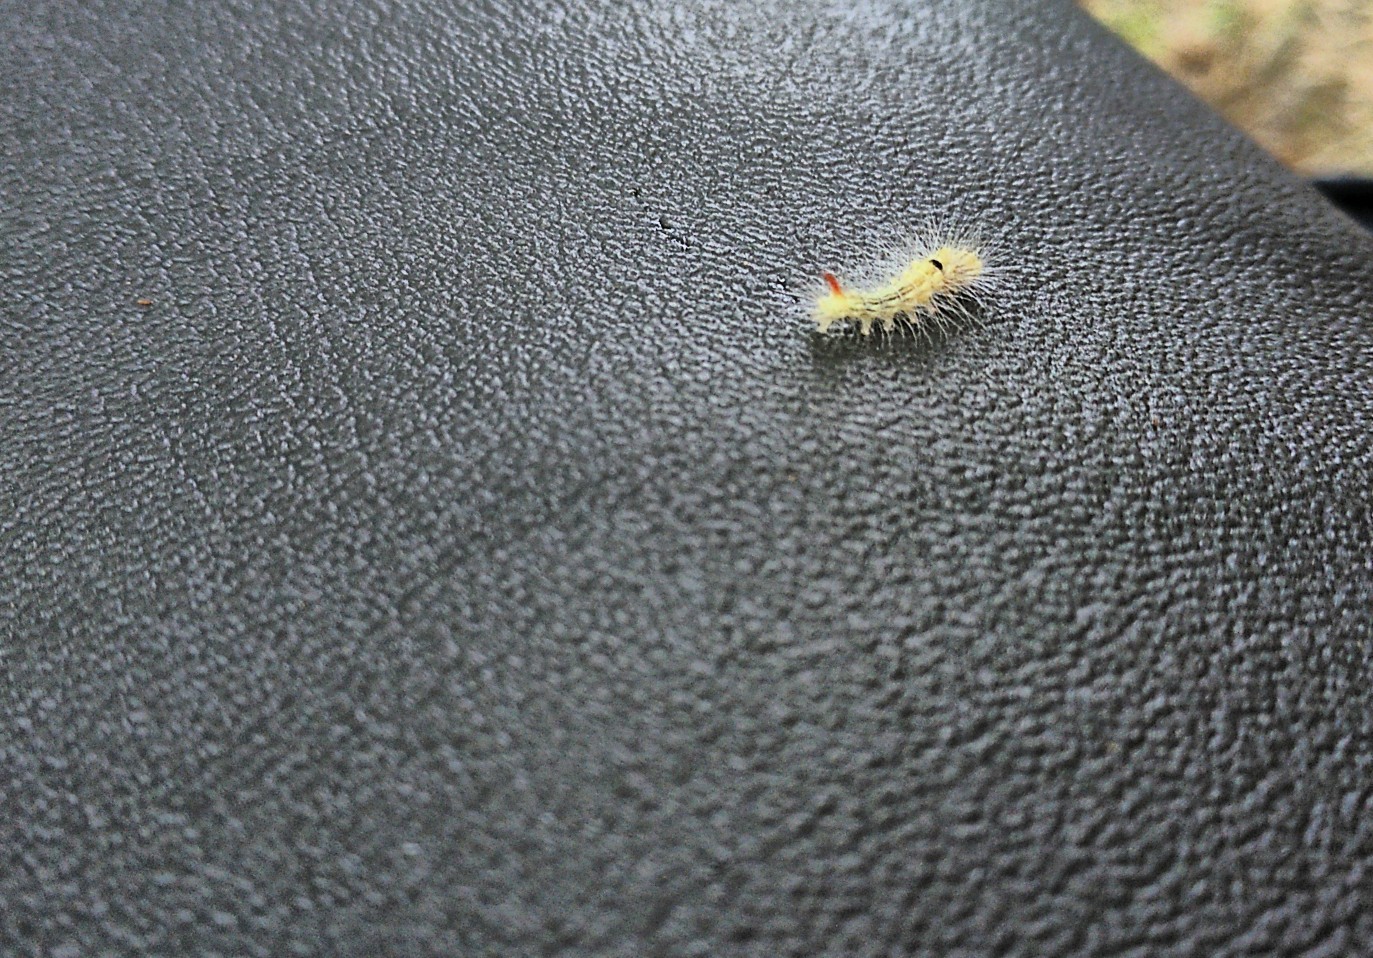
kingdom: Animalia
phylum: Arthropoda
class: Insecta
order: Lepidoptera
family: Erebidae
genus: Calliteara
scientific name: Calliteara pudibunda
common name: Pale tussock
